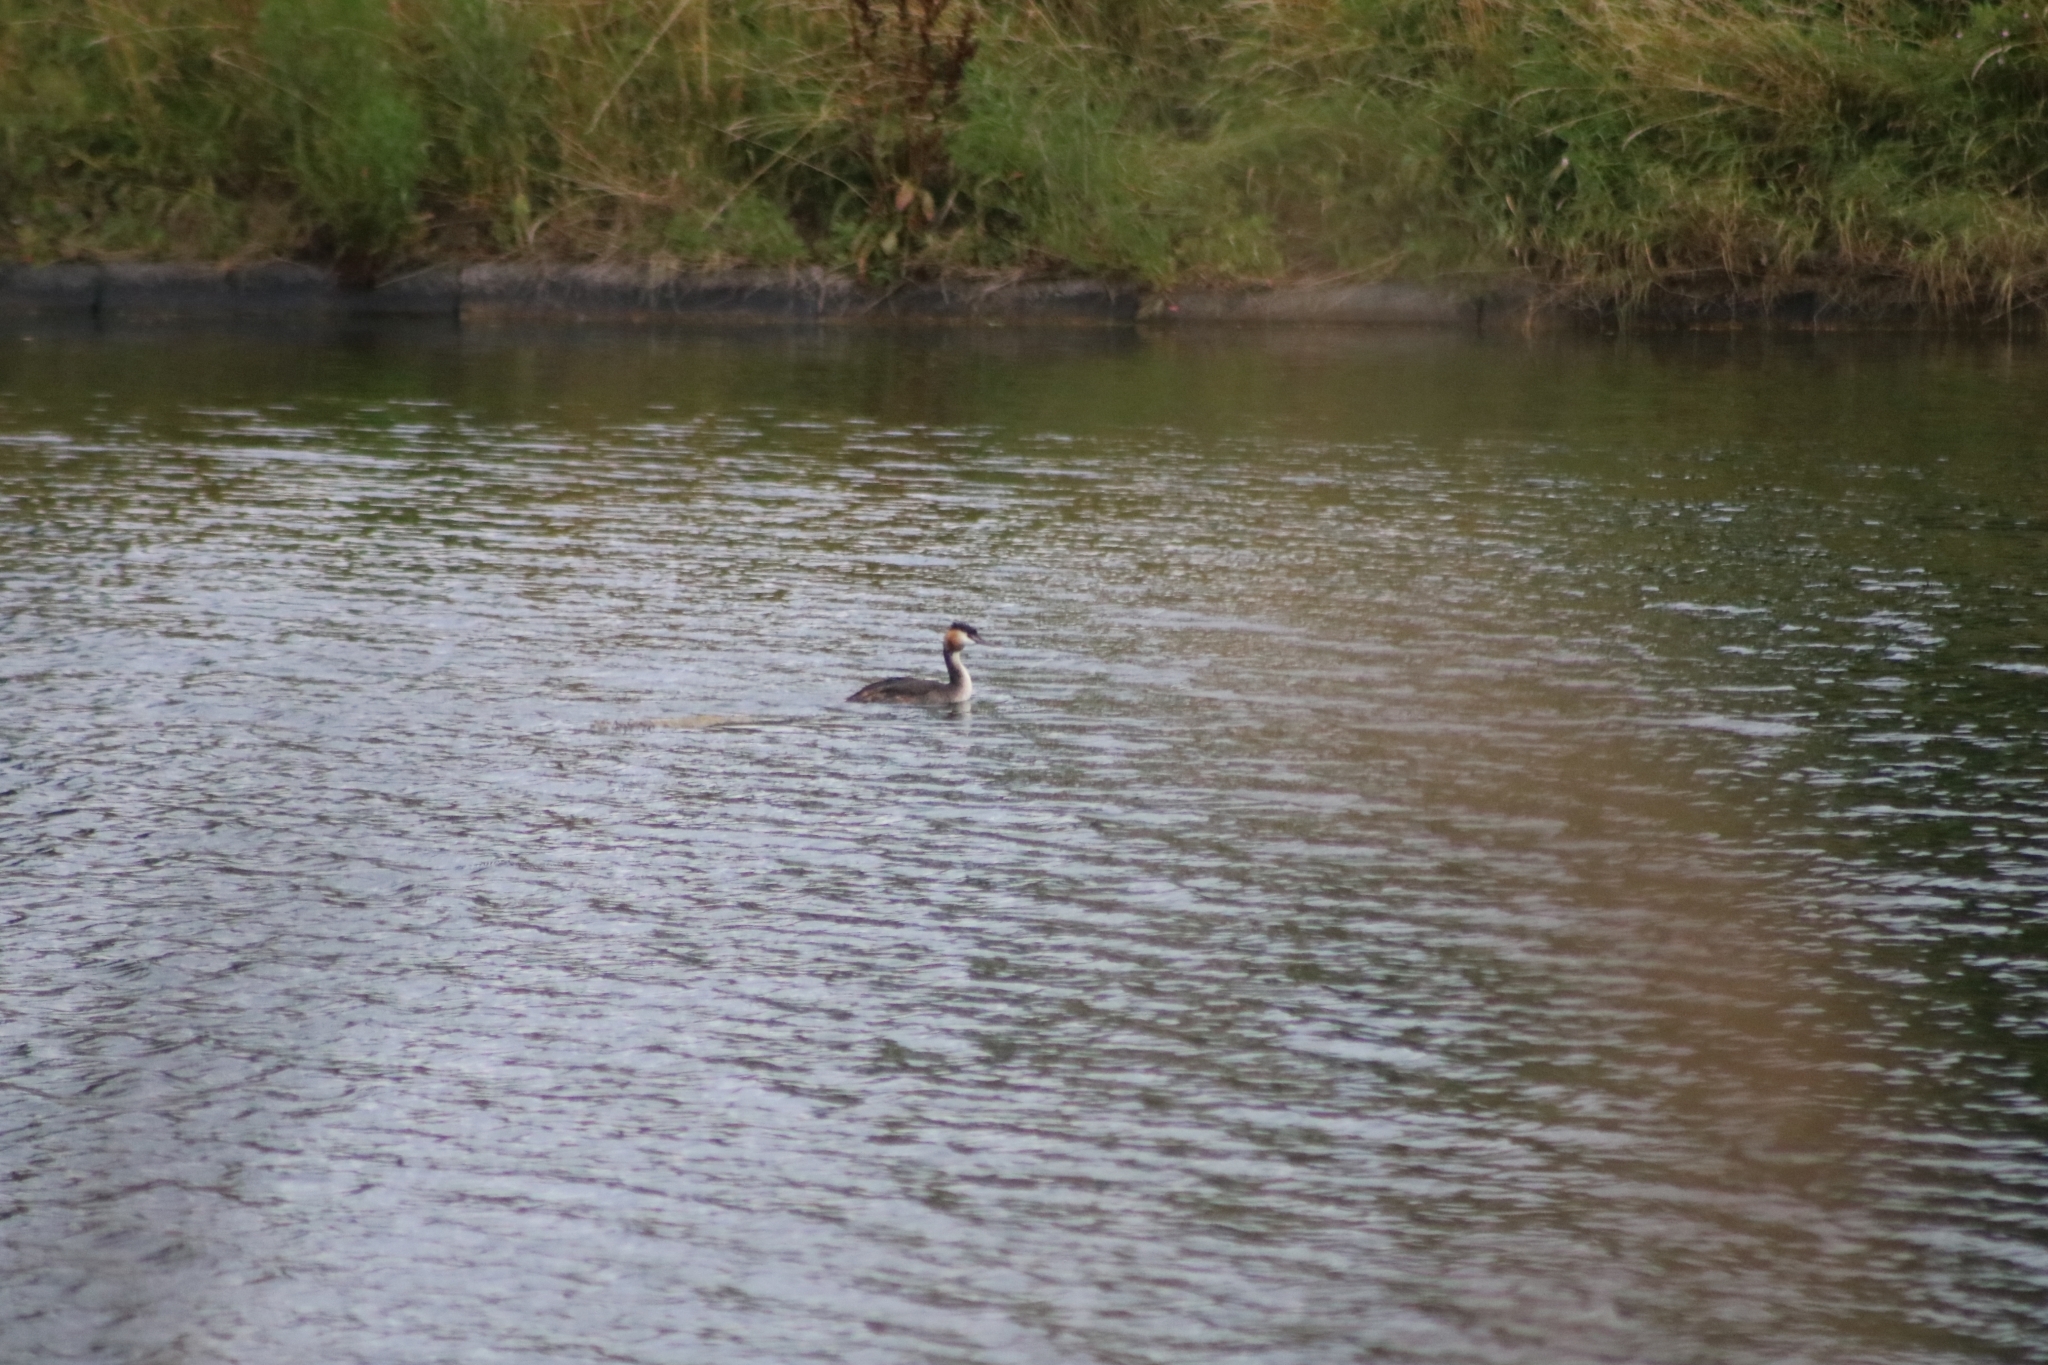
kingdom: Animalia
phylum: Chordata
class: Aves
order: Podicipediformes
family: Podicipedidae
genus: Podiceps
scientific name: Podiceps cristatus
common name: Great crested grebe
